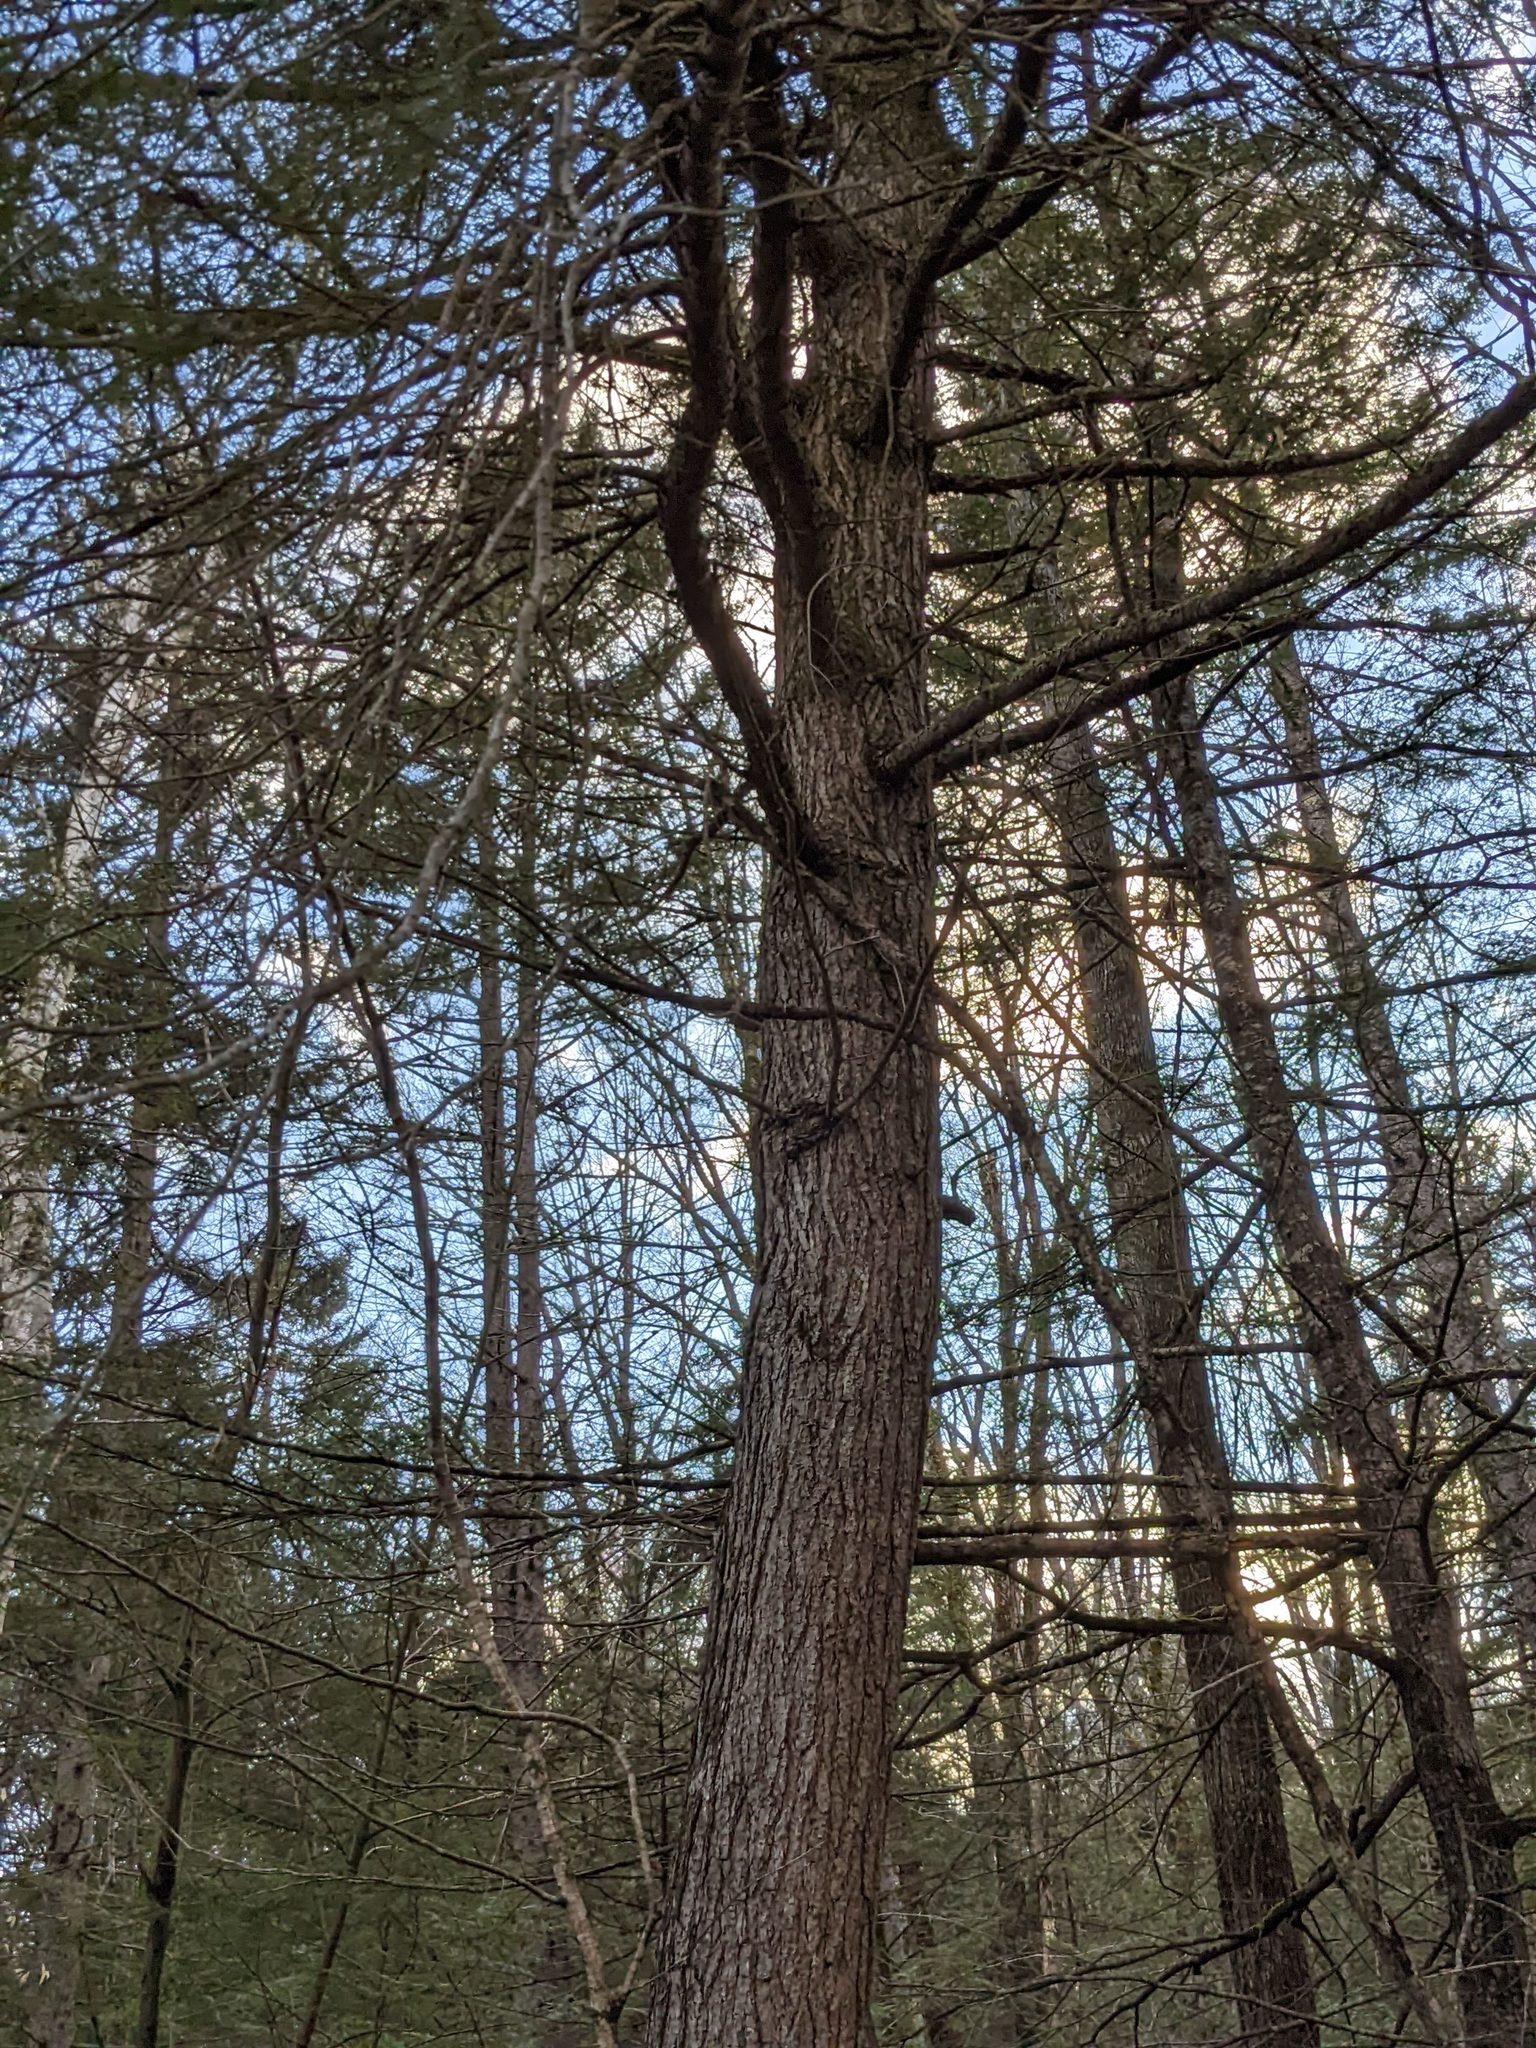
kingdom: Plantae
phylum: Tracheophyta
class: Pinopsida
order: Pinales
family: Pinaceae
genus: Tsuga
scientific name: Tsuga canadensis
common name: Eastern hemlock
